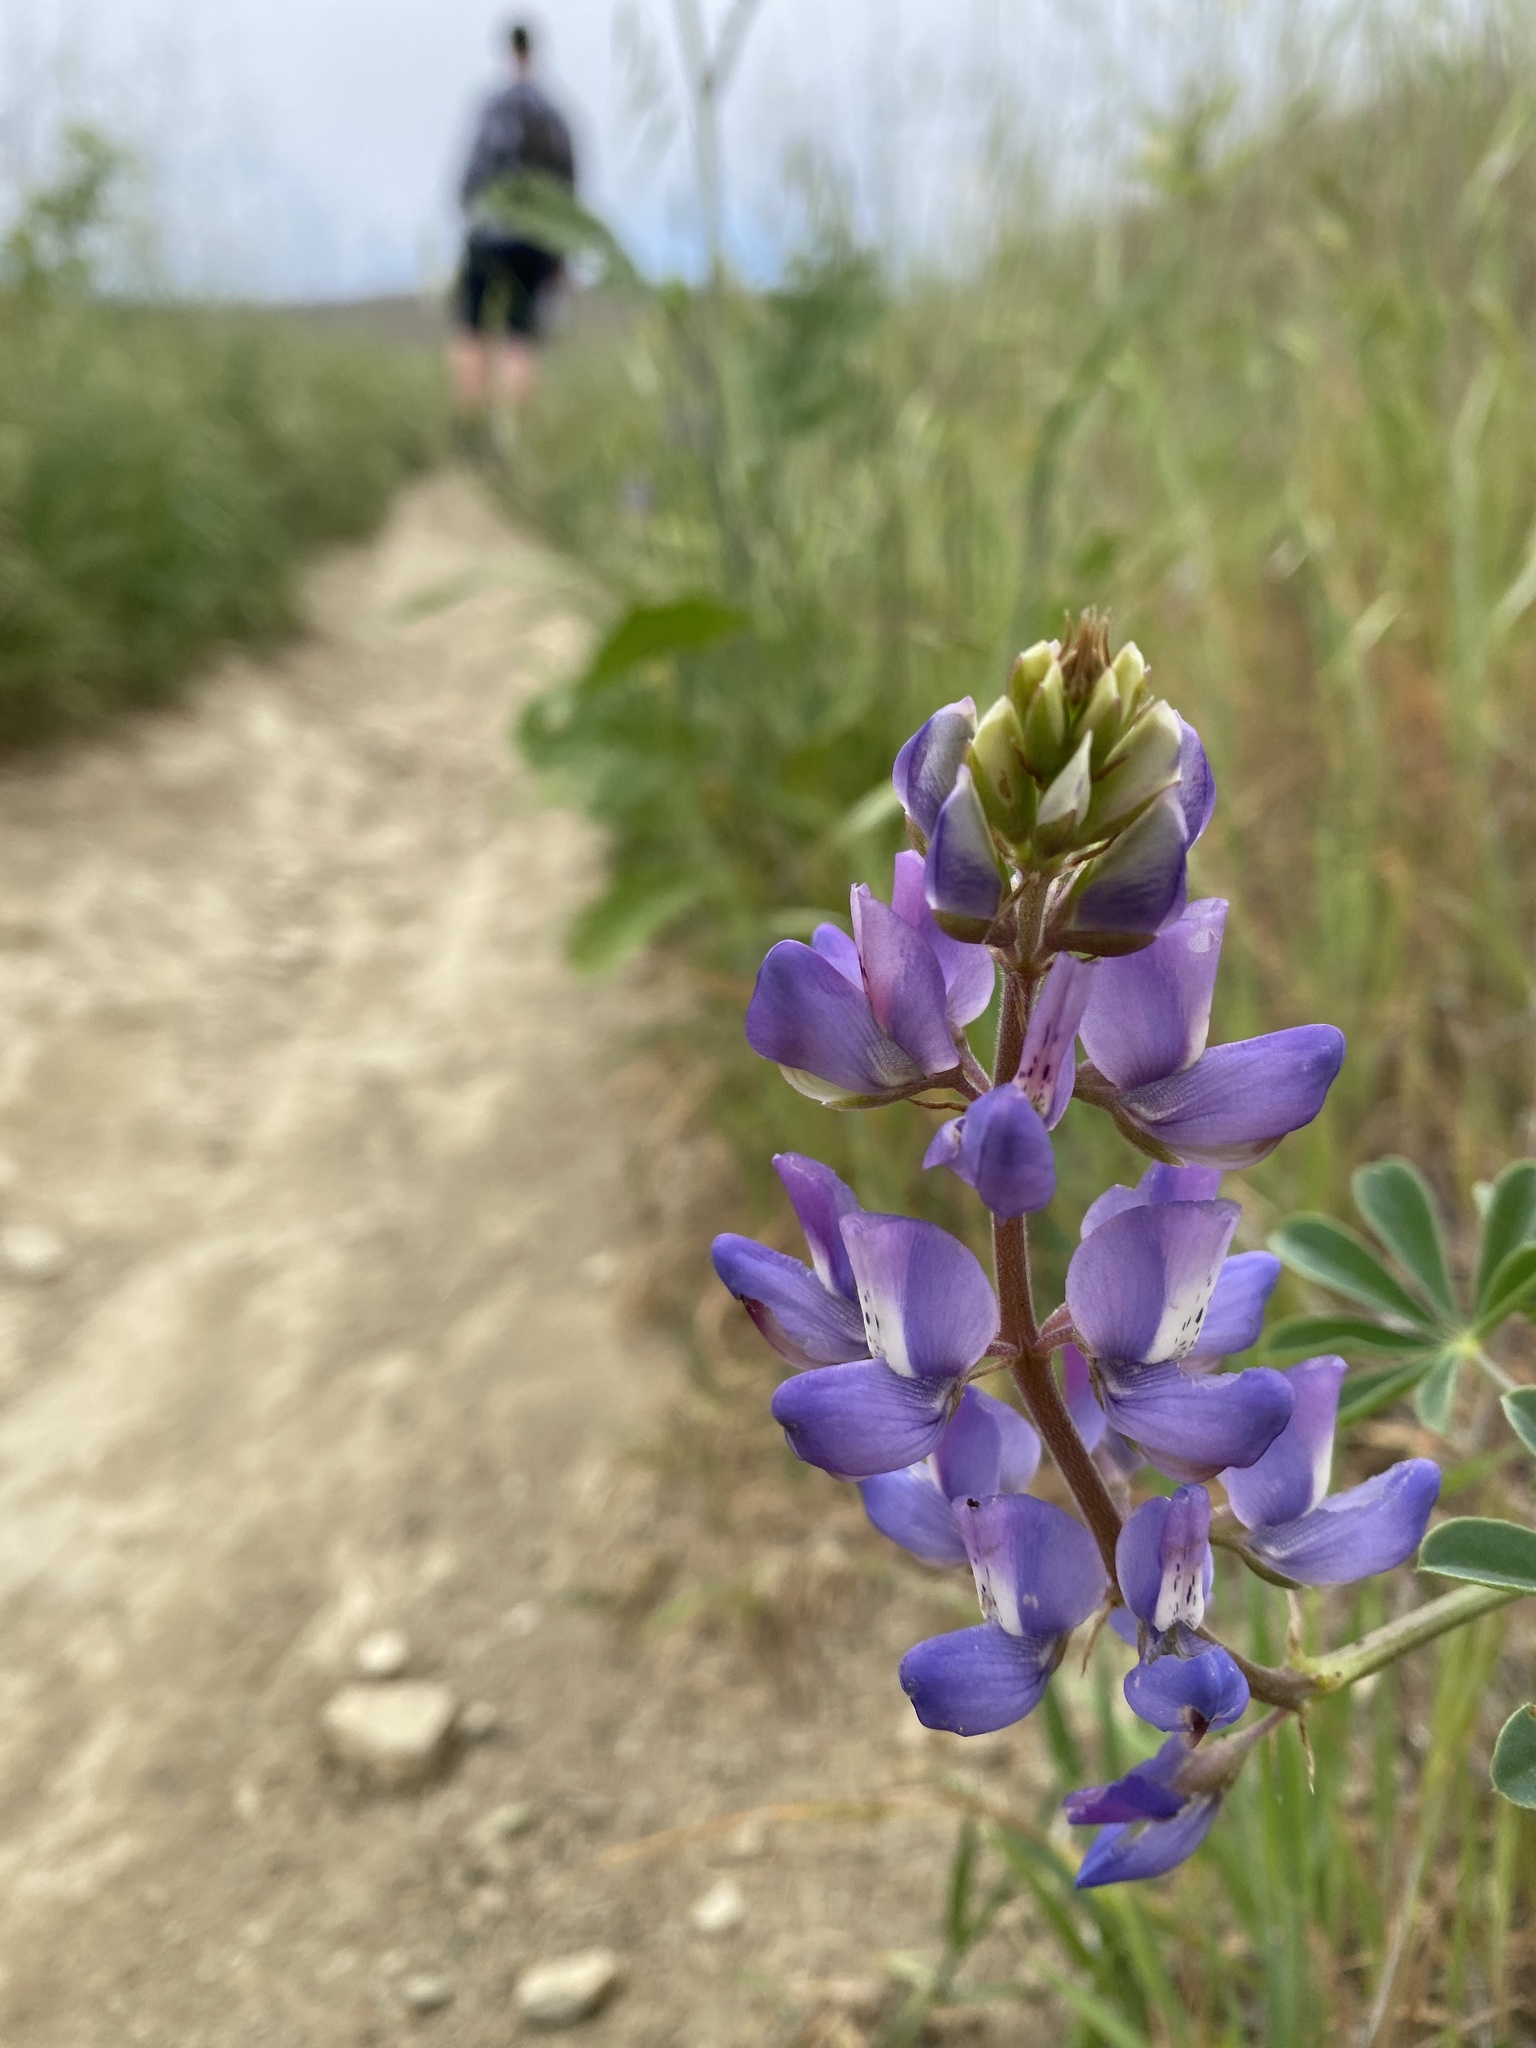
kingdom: Plantae
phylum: Tracheophyta
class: Magnoliopsida
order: Fabales
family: Fabaceae
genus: Lupinus
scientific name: Lupinus succulentus
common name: Arroyo lupine
